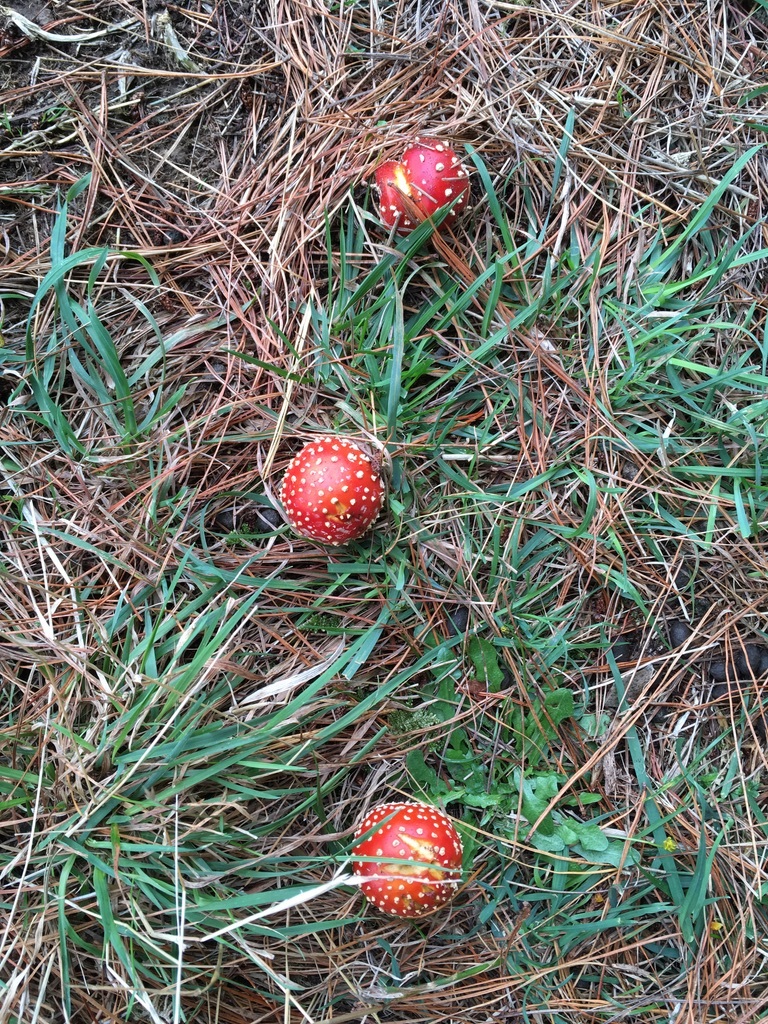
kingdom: Fungi
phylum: Basidiomycota
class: Agaricomycetes
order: Agaricales
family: Amanitaceae
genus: Amanita
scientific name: Amanita muscaria
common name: Fly agaric
